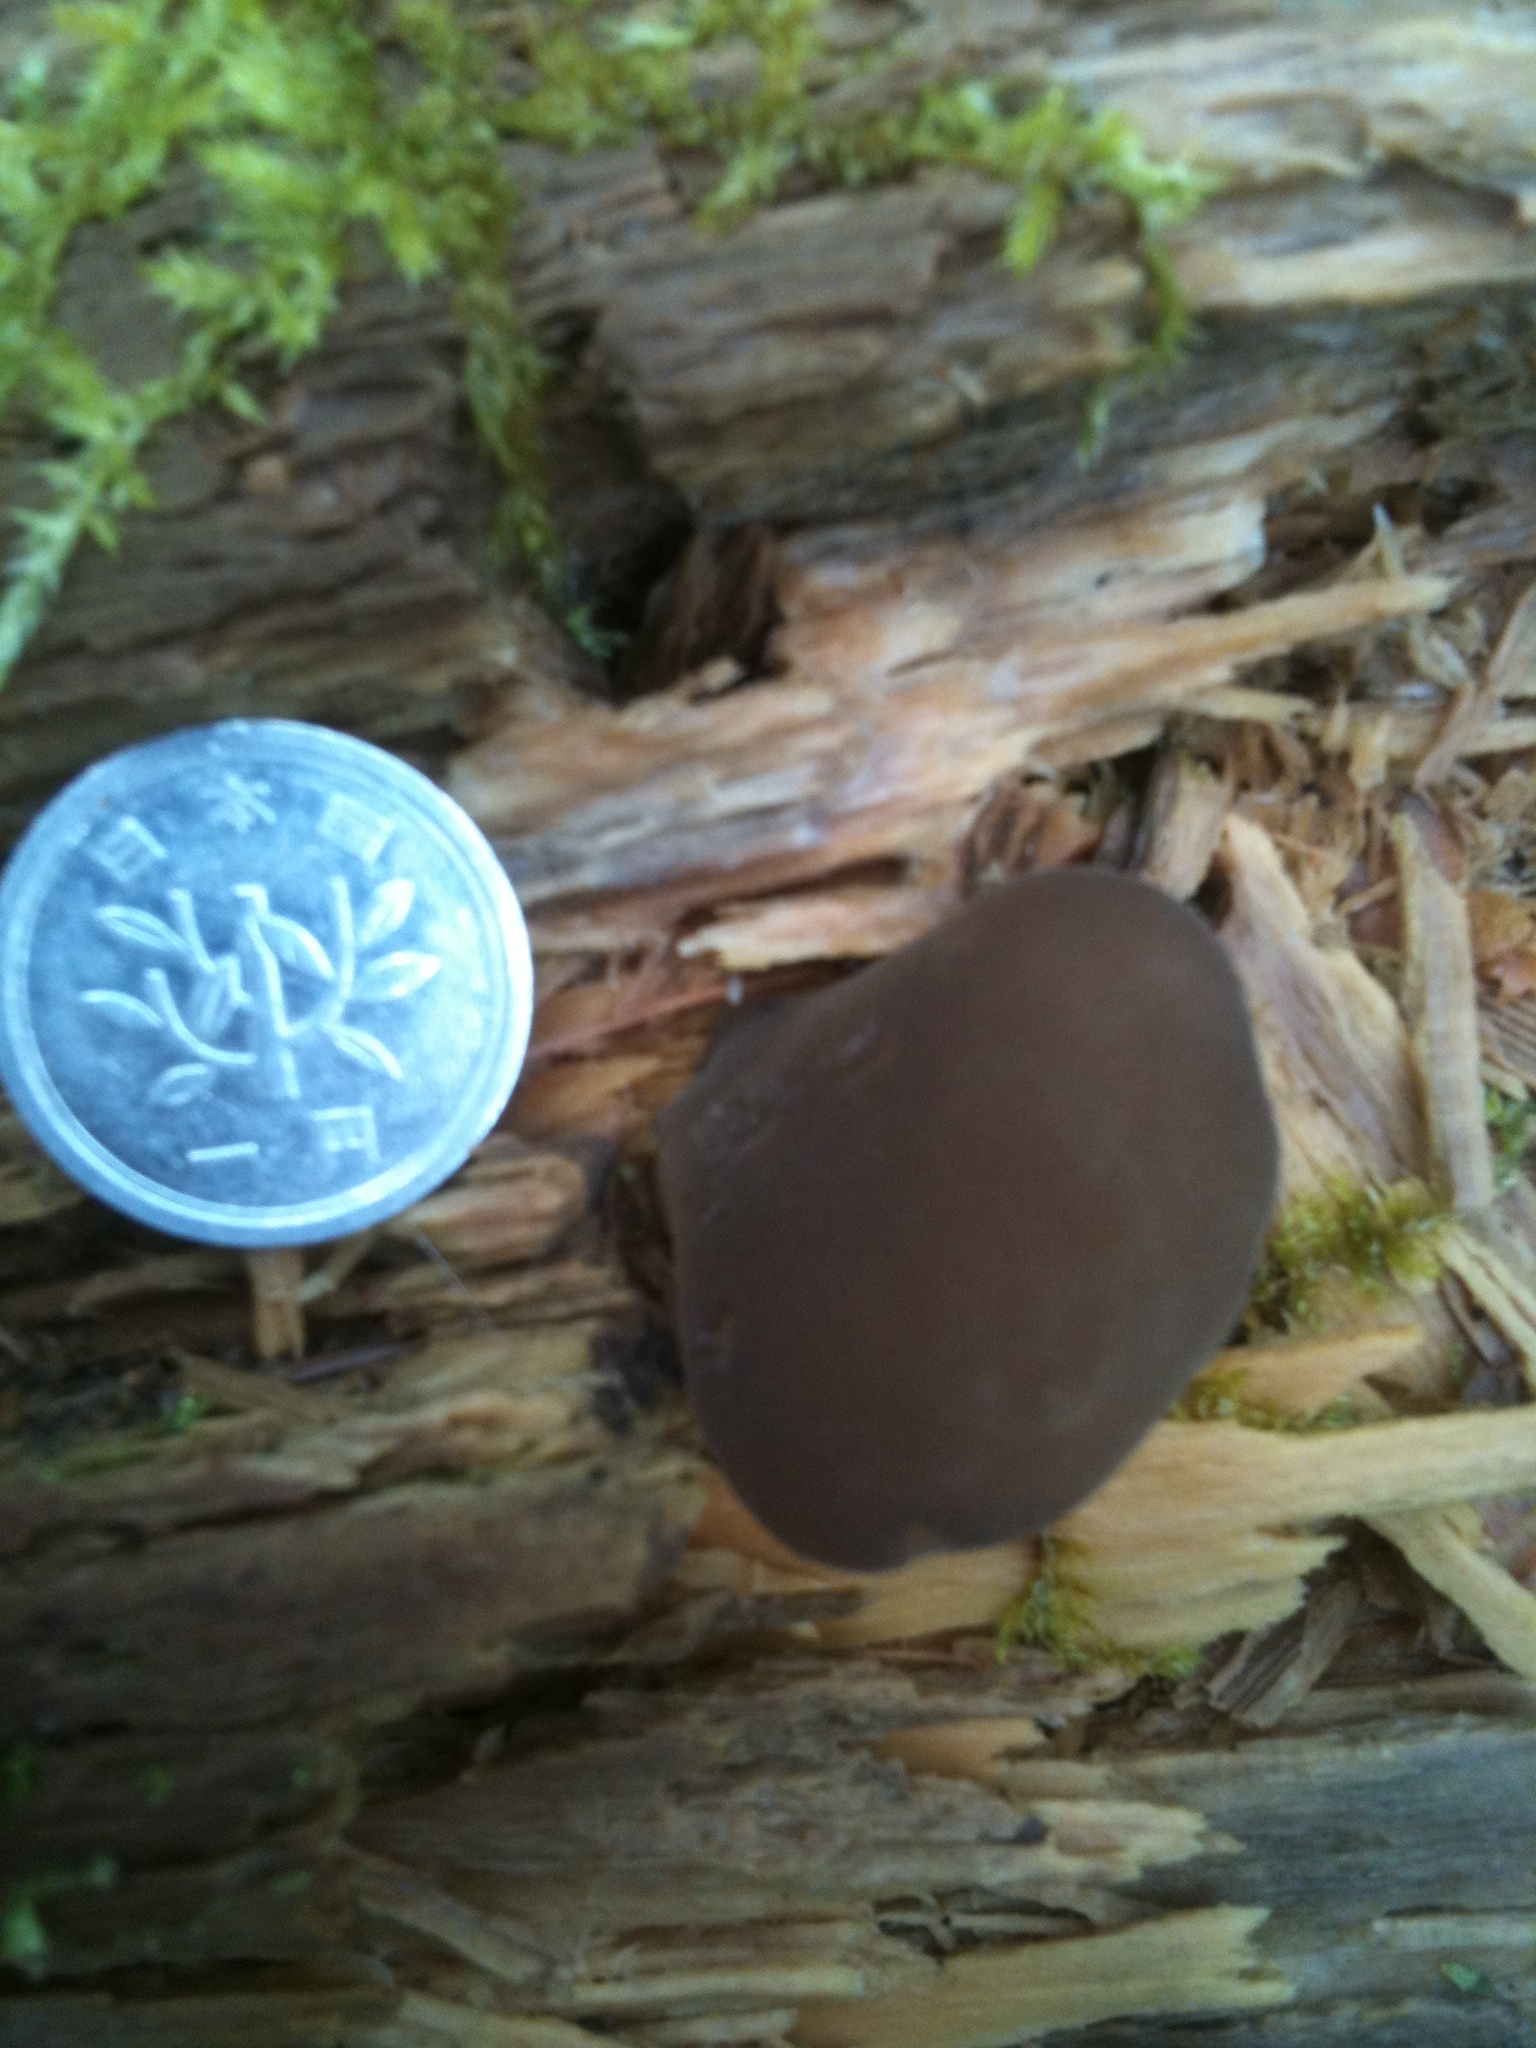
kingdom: Fungi
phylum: Basidiomycota
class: Agaricomycetes
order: Auriculariales
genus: Pseudohydnum
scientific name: Pseudohydnum gelatinosum
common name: Jelly tongue
